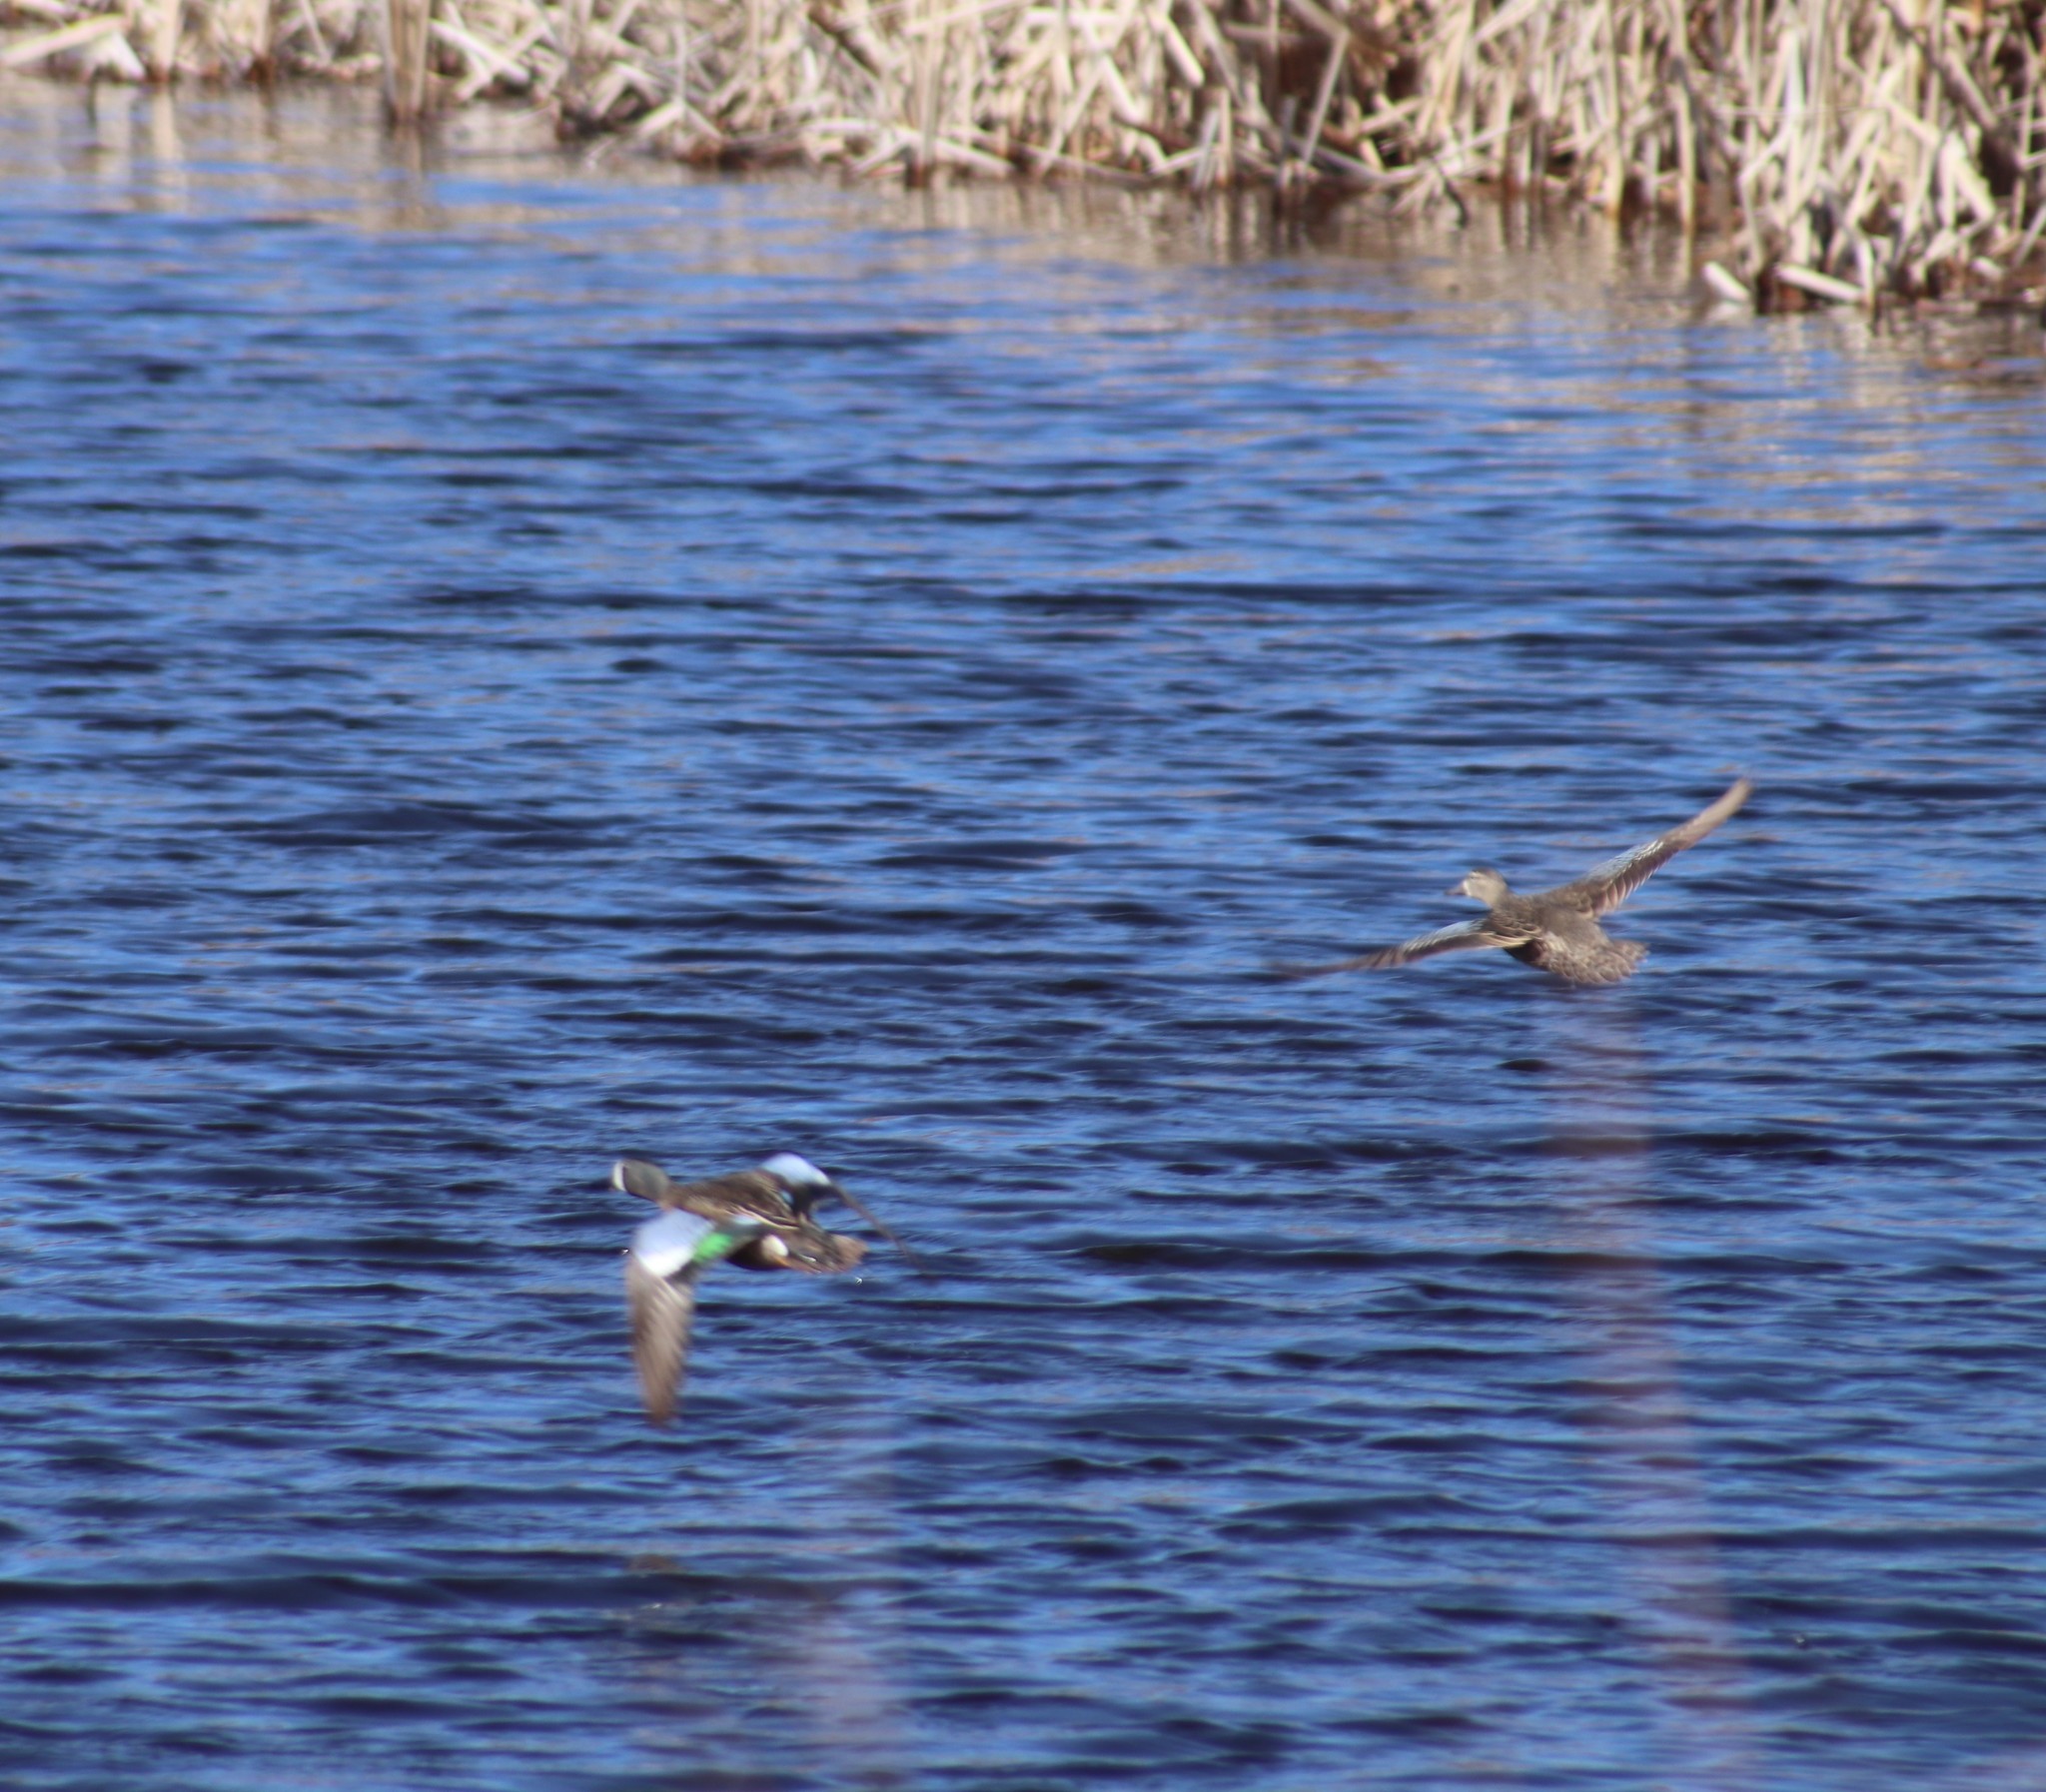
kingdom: Animalia
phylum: Chordata
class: Aves
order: Anseriformes
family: Anatidae
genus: Spatula
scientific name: Spatula discors
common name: Blue-winged teal
